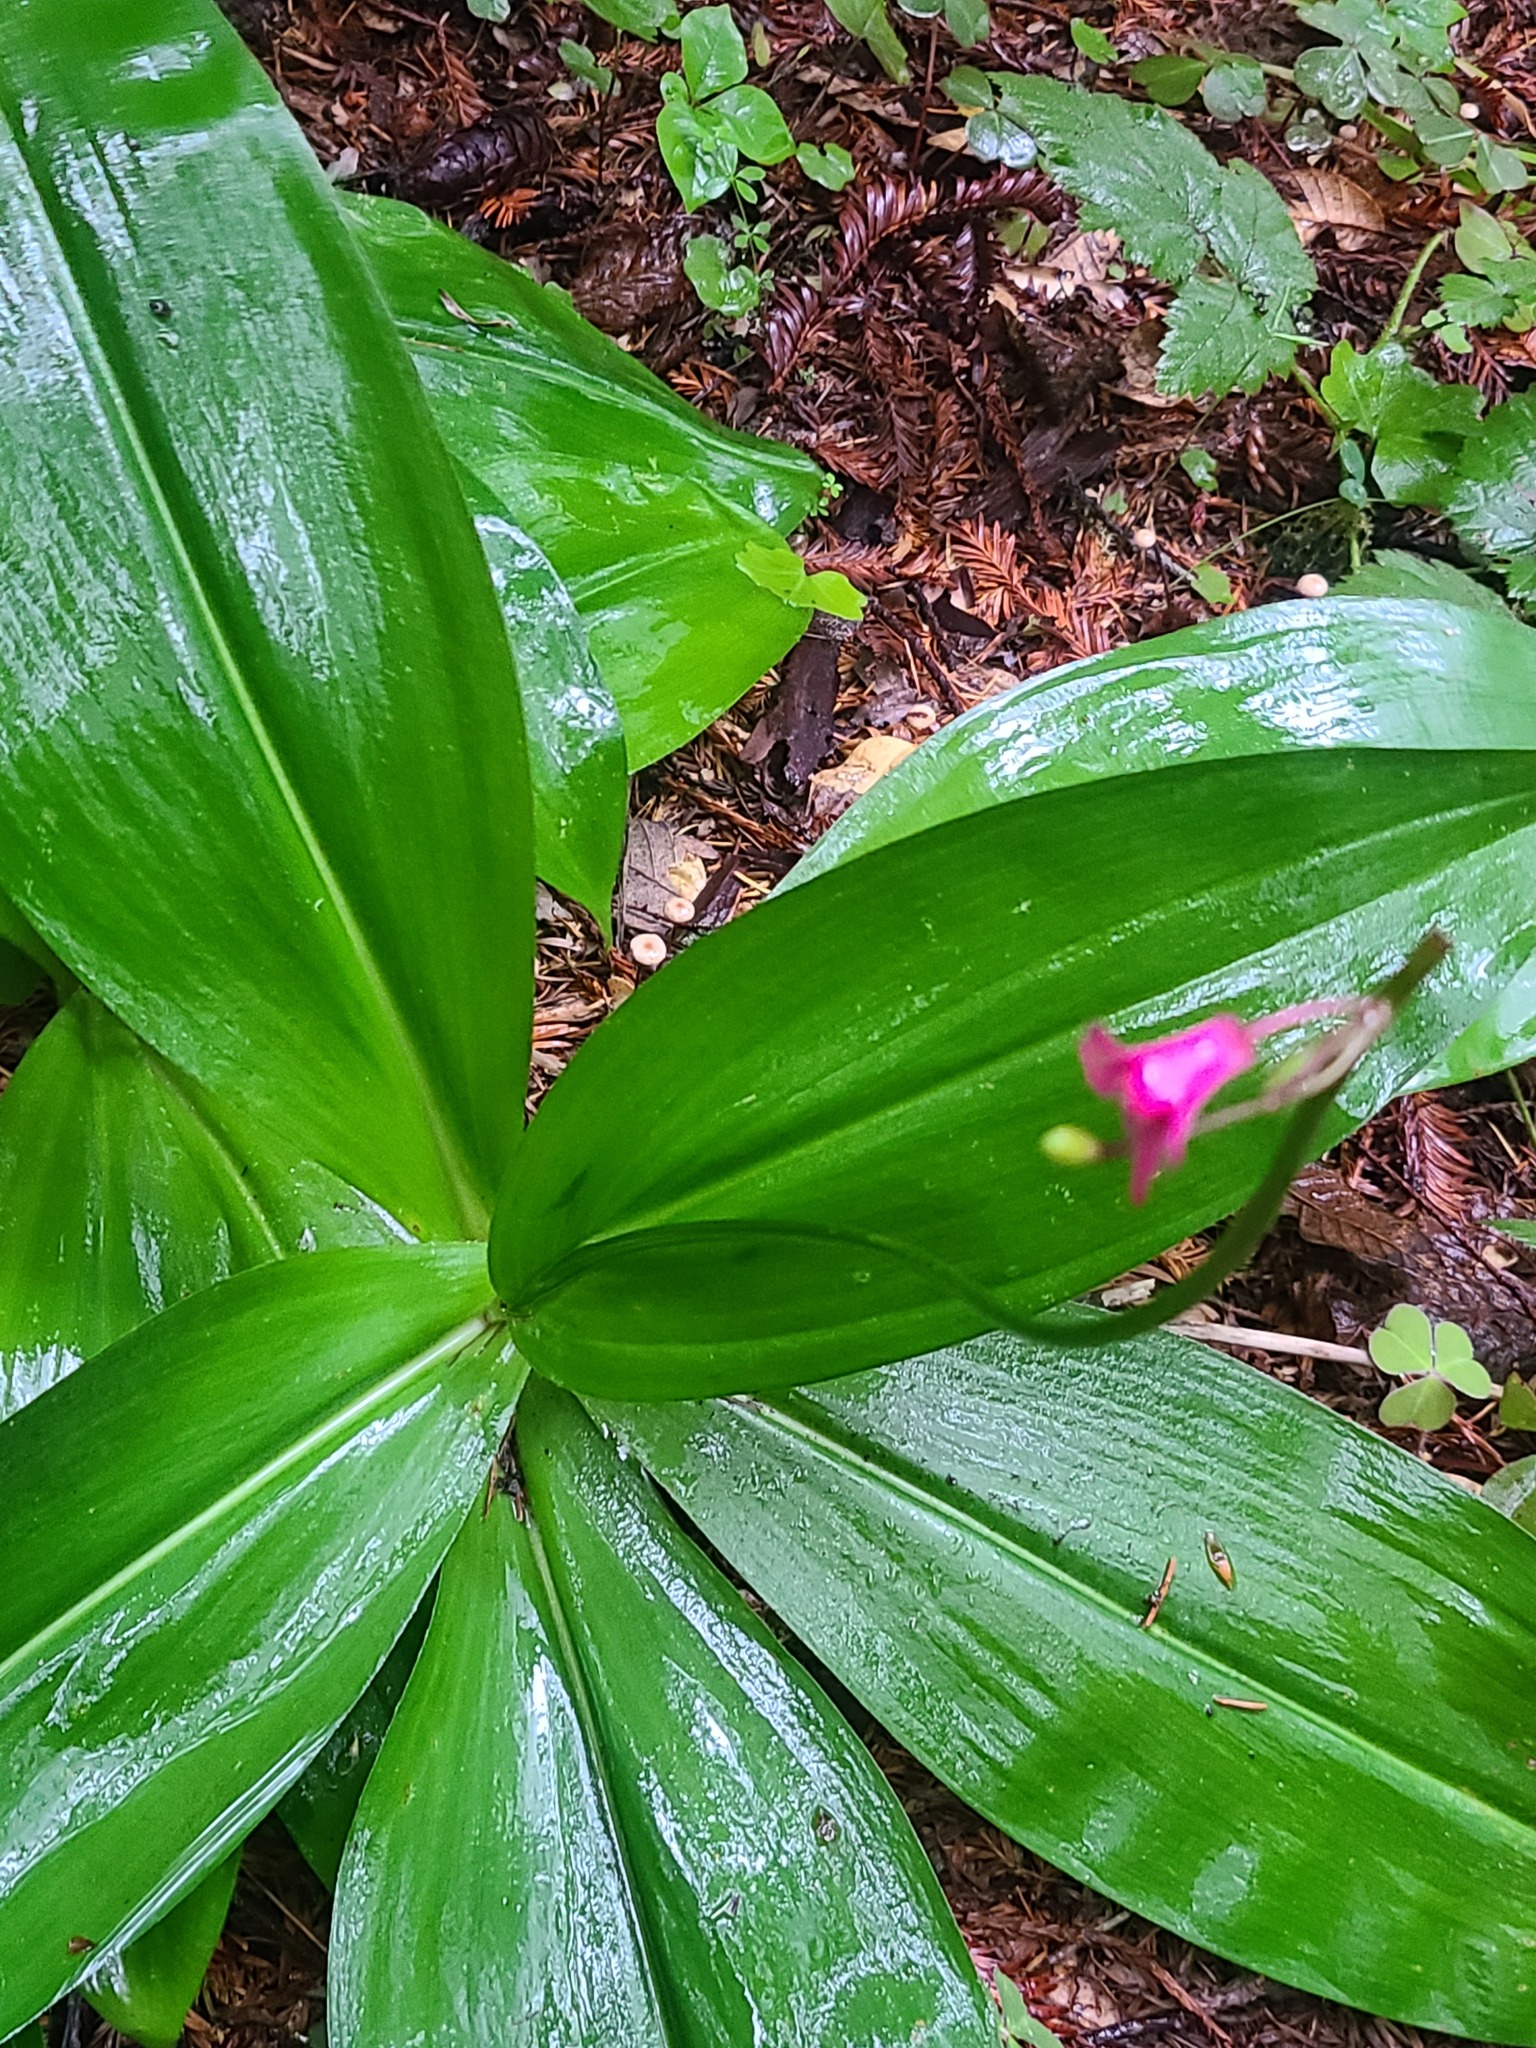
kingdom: Plantae
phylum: Tracheophyta
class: Liliopsida
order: Liliales
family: Liliaceae
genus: Clintonia
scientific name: Clintonia andrewsiana
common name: Red clintonia
